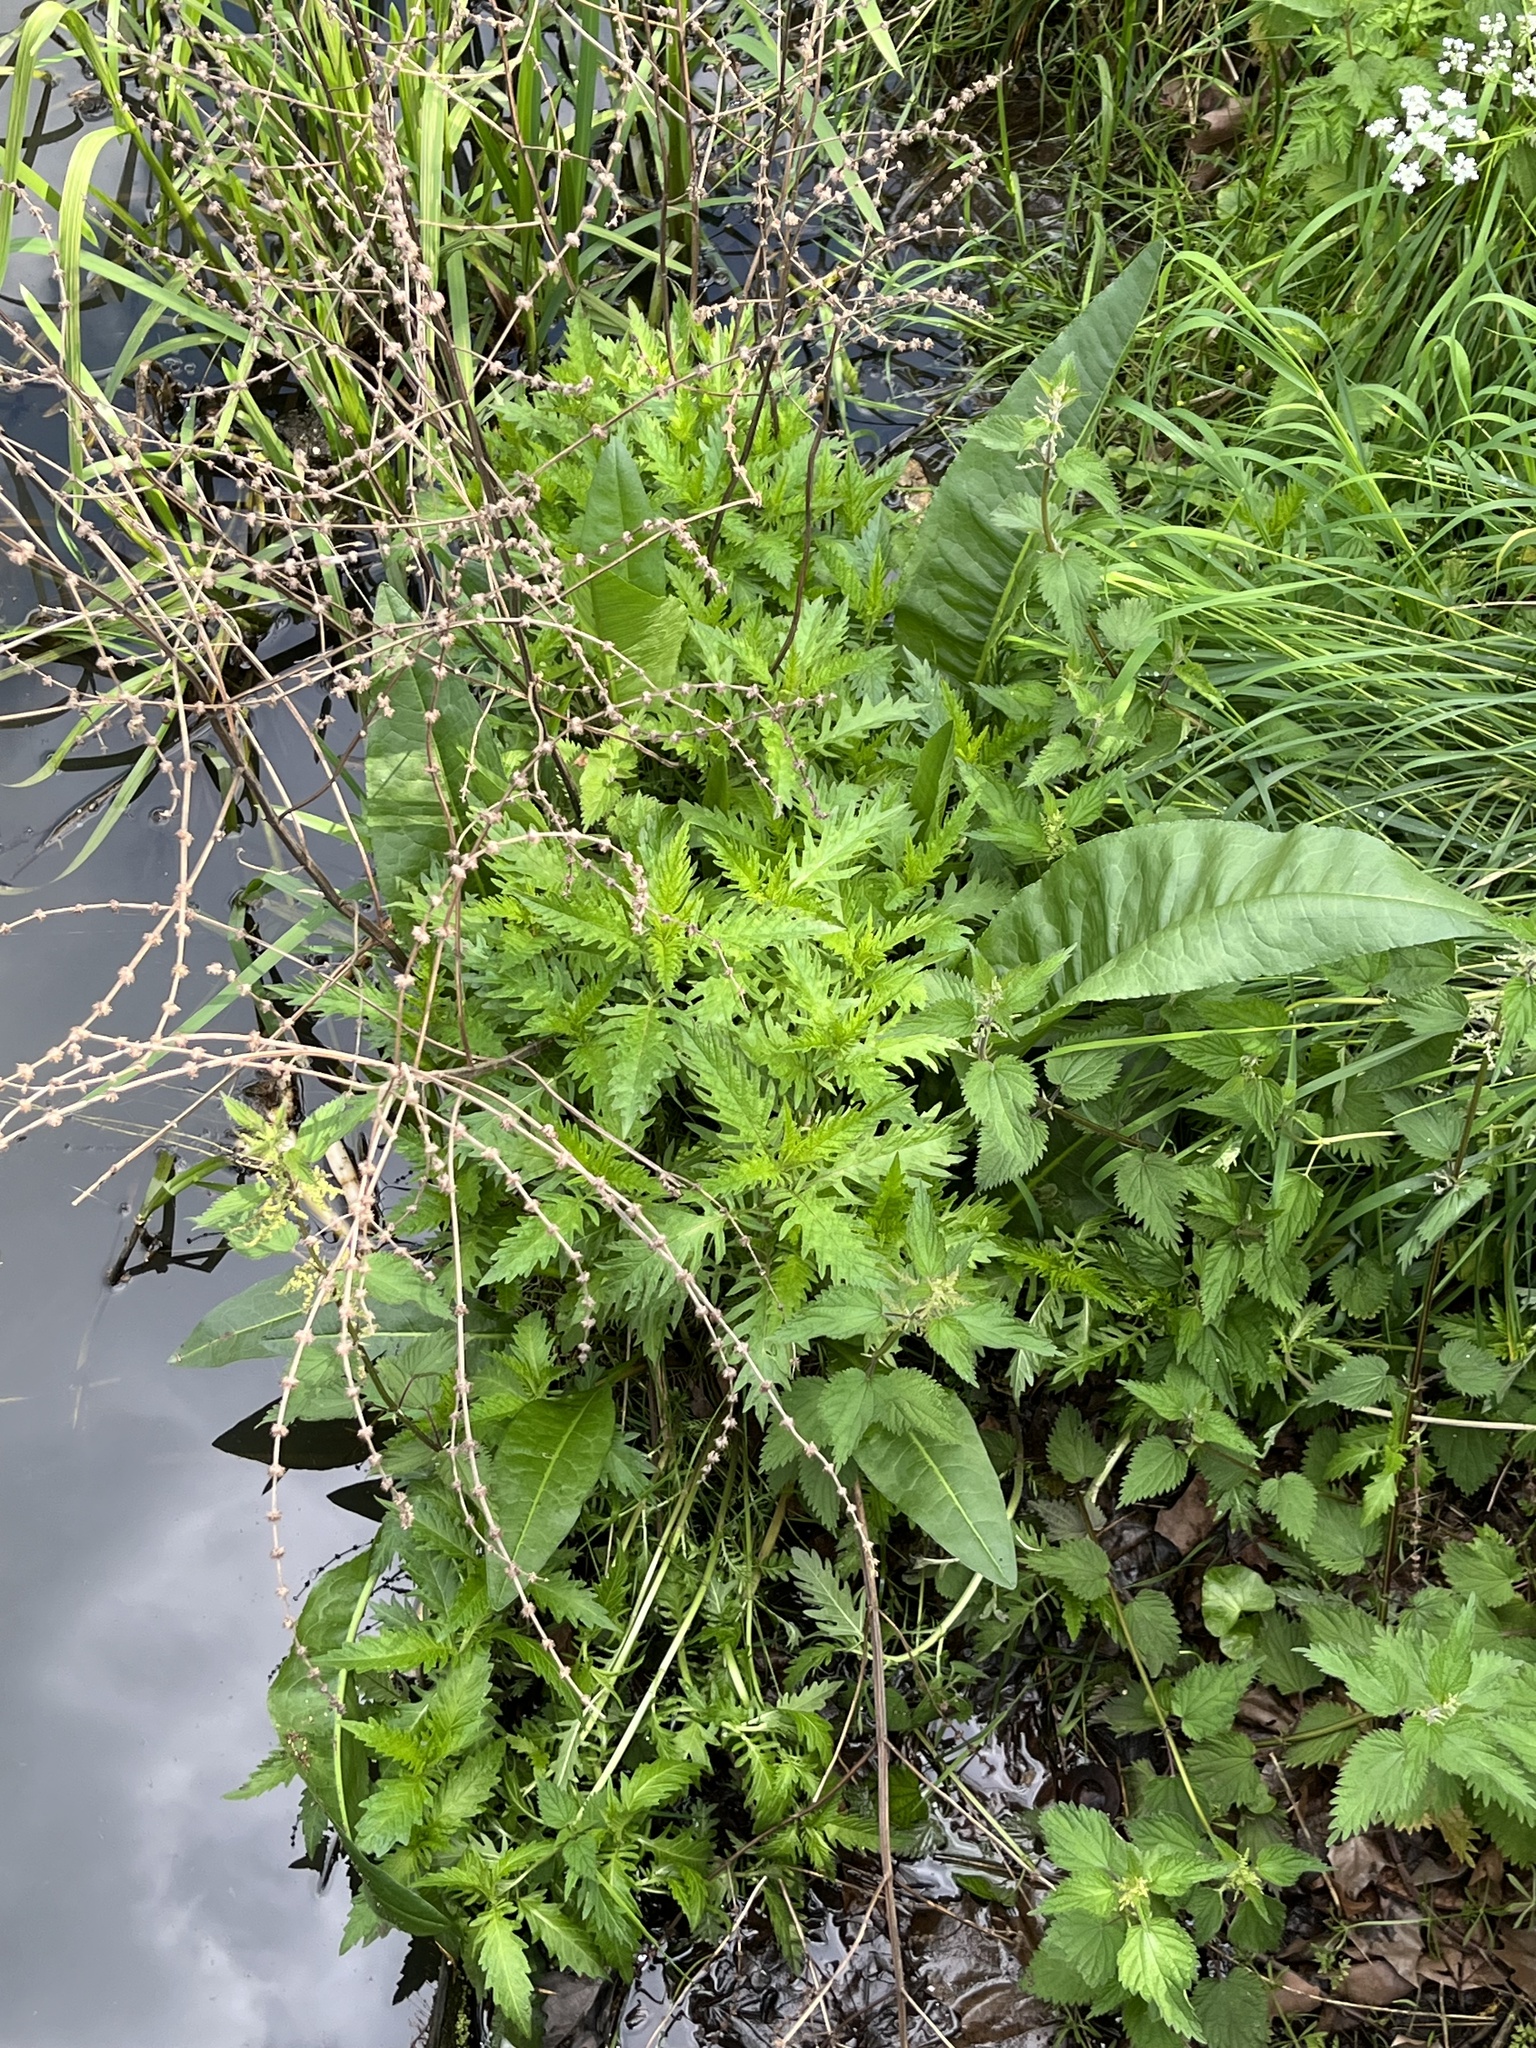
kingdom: Plantae
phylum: Tracheophyta
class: Magnoliopsida
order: Lamiales
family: Lamiaceae
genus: Lycopus
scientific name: Lycopus europaeus
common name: European bugleweed
